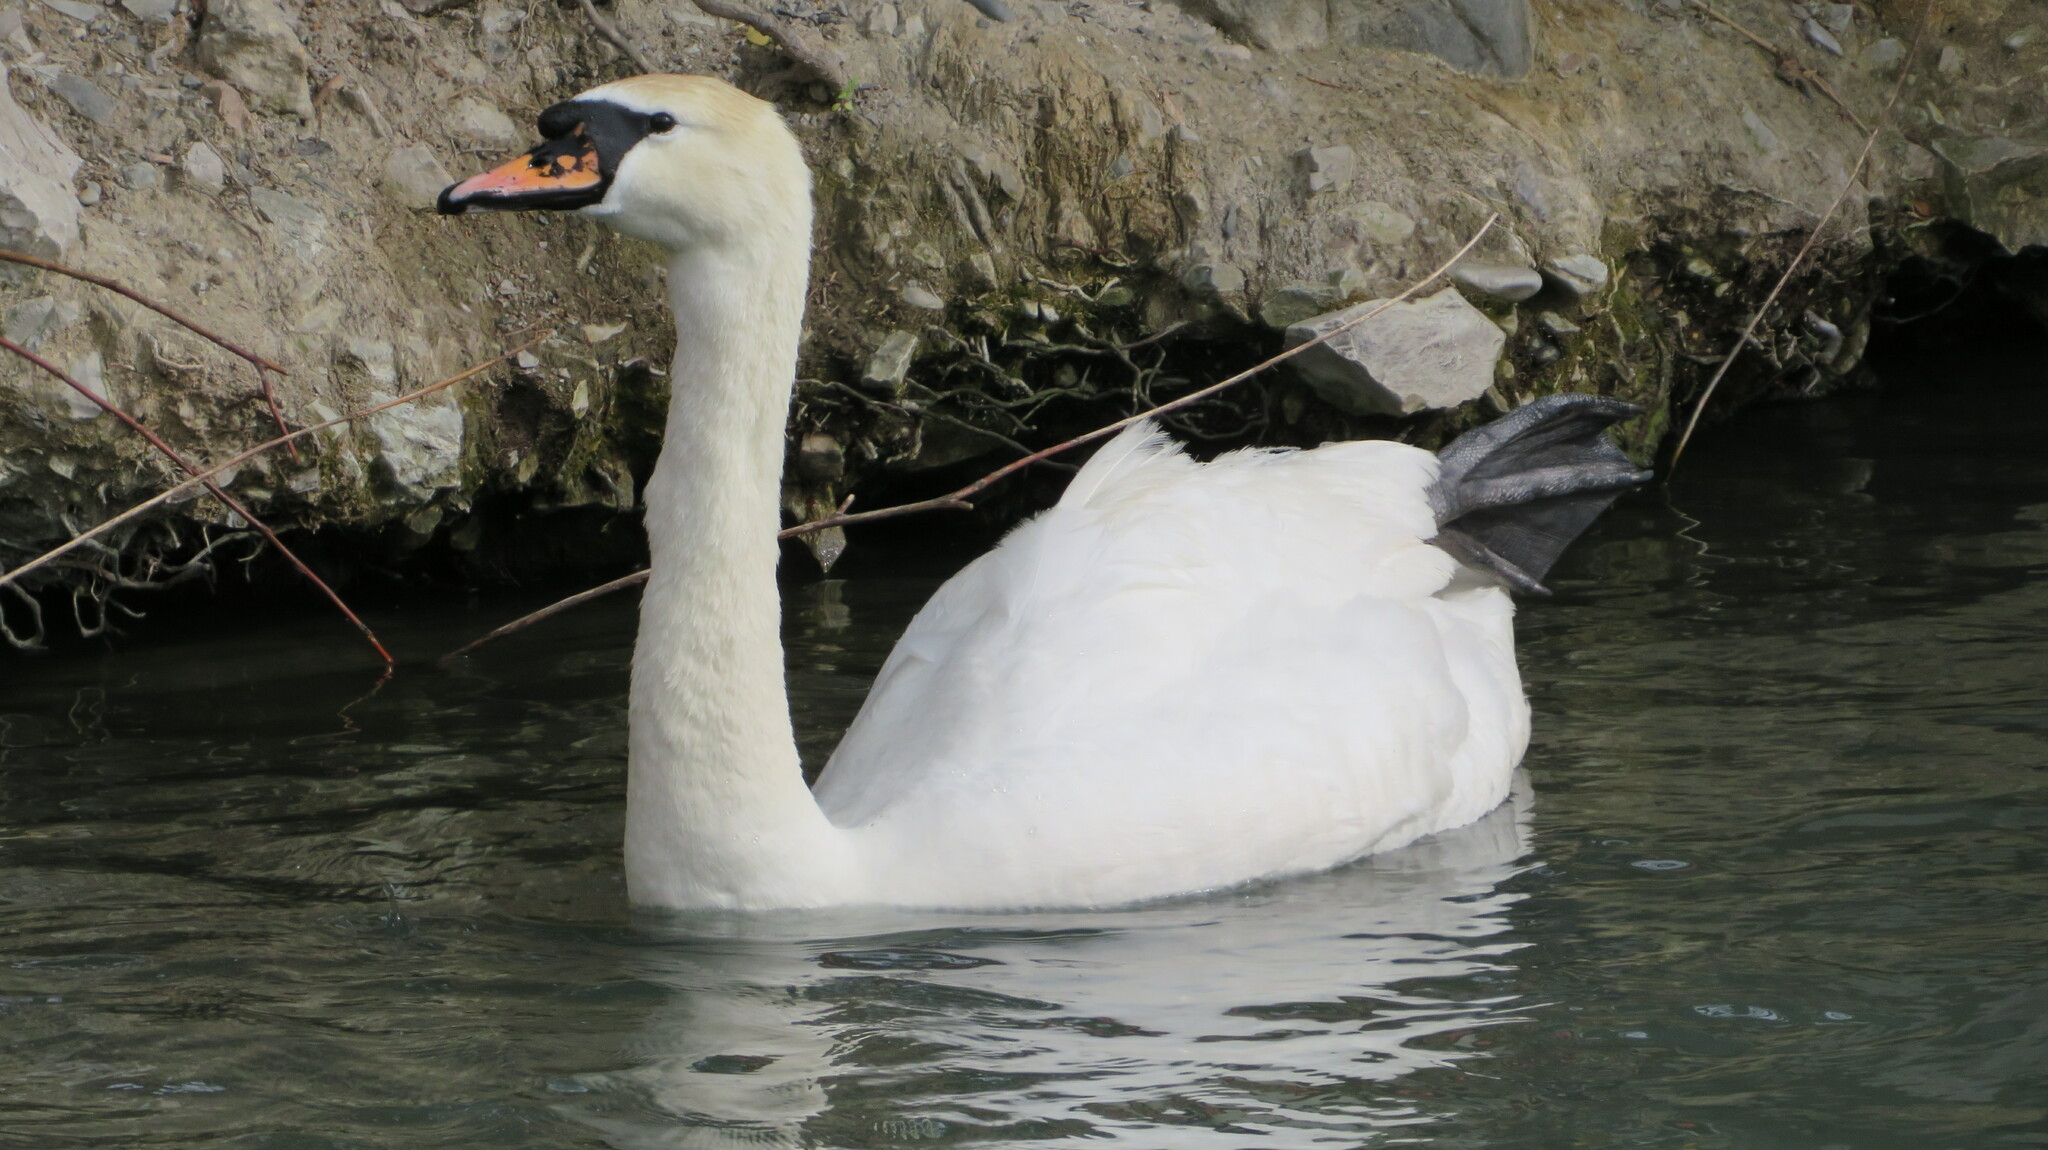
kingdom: Animalia
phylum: Chordata
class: Aves
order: Anseriformes
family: Anatidae
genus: Cygnus
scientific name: Cygnus olor
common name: Mute swan
